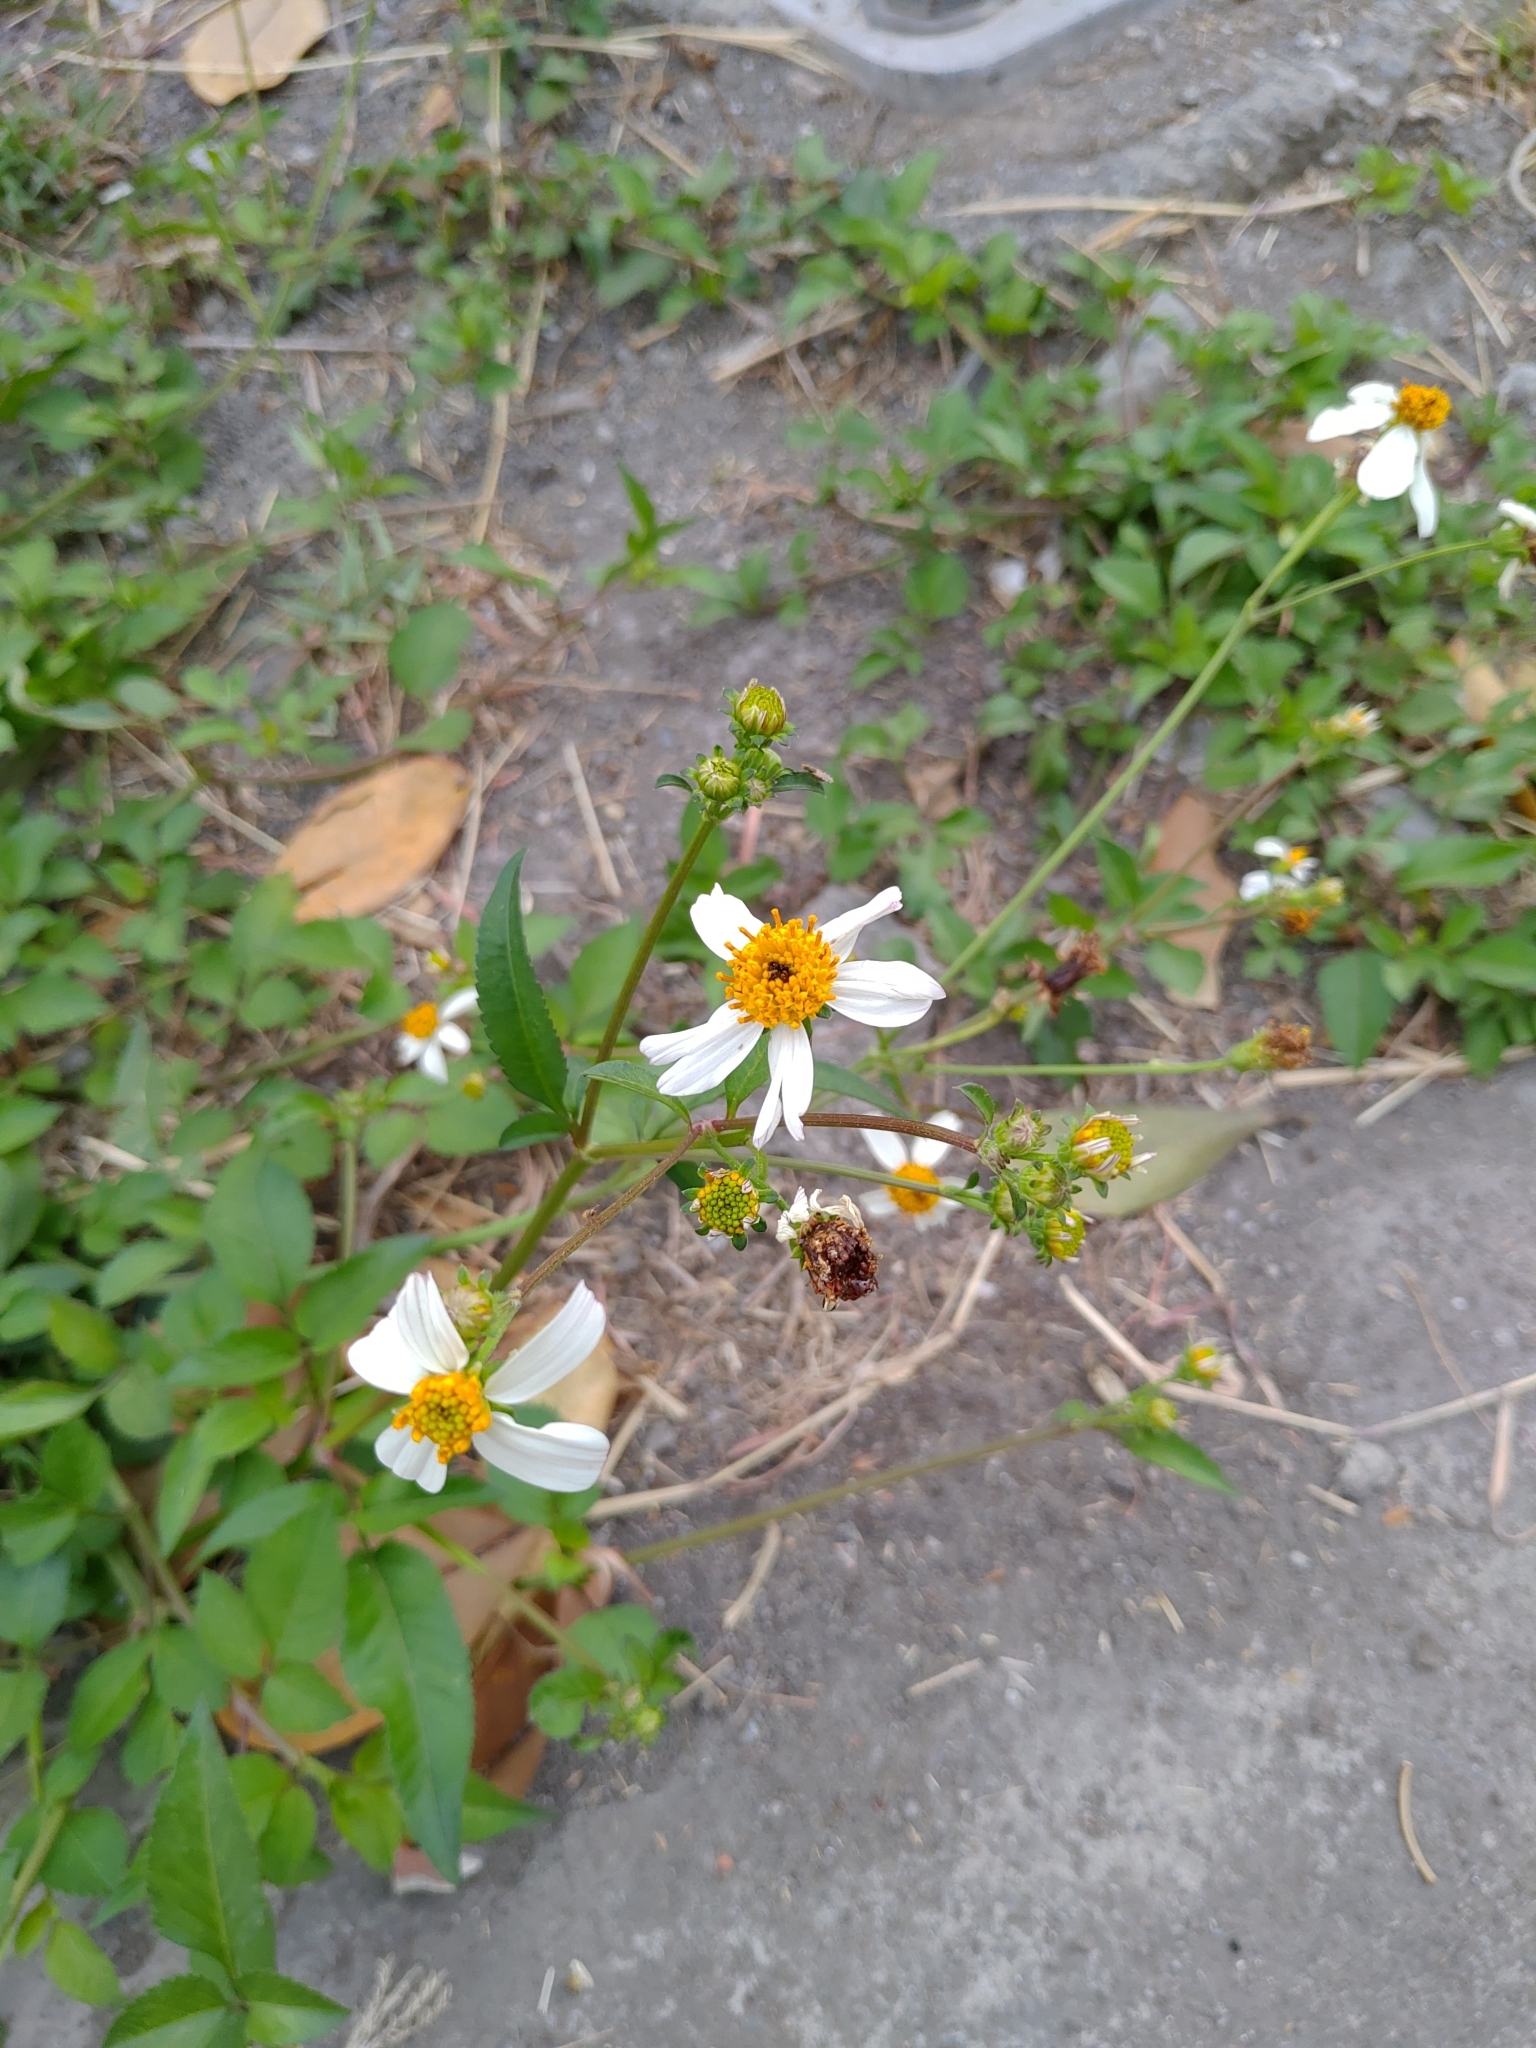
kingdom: Plantae
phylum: Tracheophyta
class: Magnoliopsida
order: Asterales
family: Asteraceae
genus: Bidens
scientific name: Bidens alba
